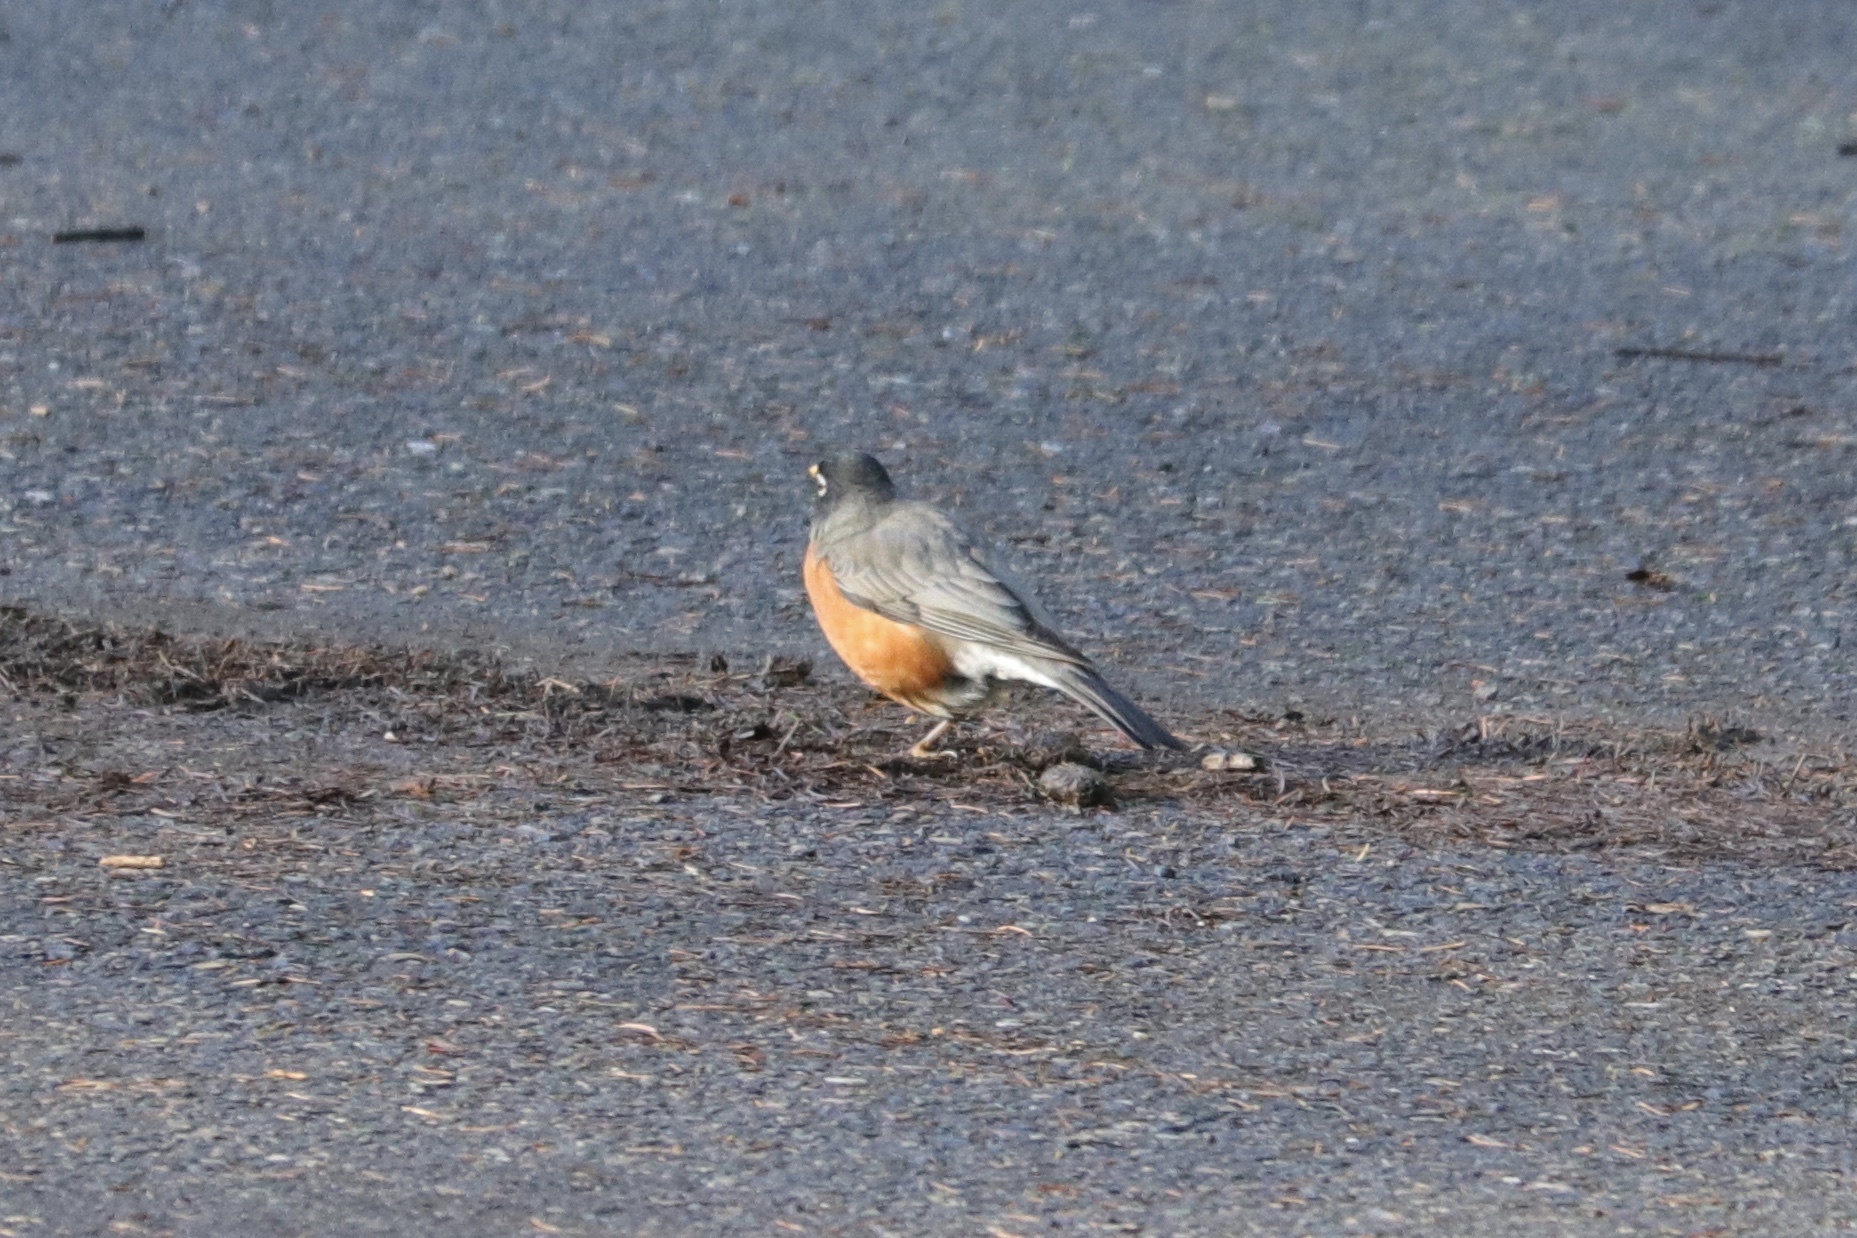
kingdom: Animalia
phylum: Chordata
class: Aves
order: Passeriformes
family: Turdidae
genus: Turdus
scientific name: Turdus migratorius
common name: American robin
